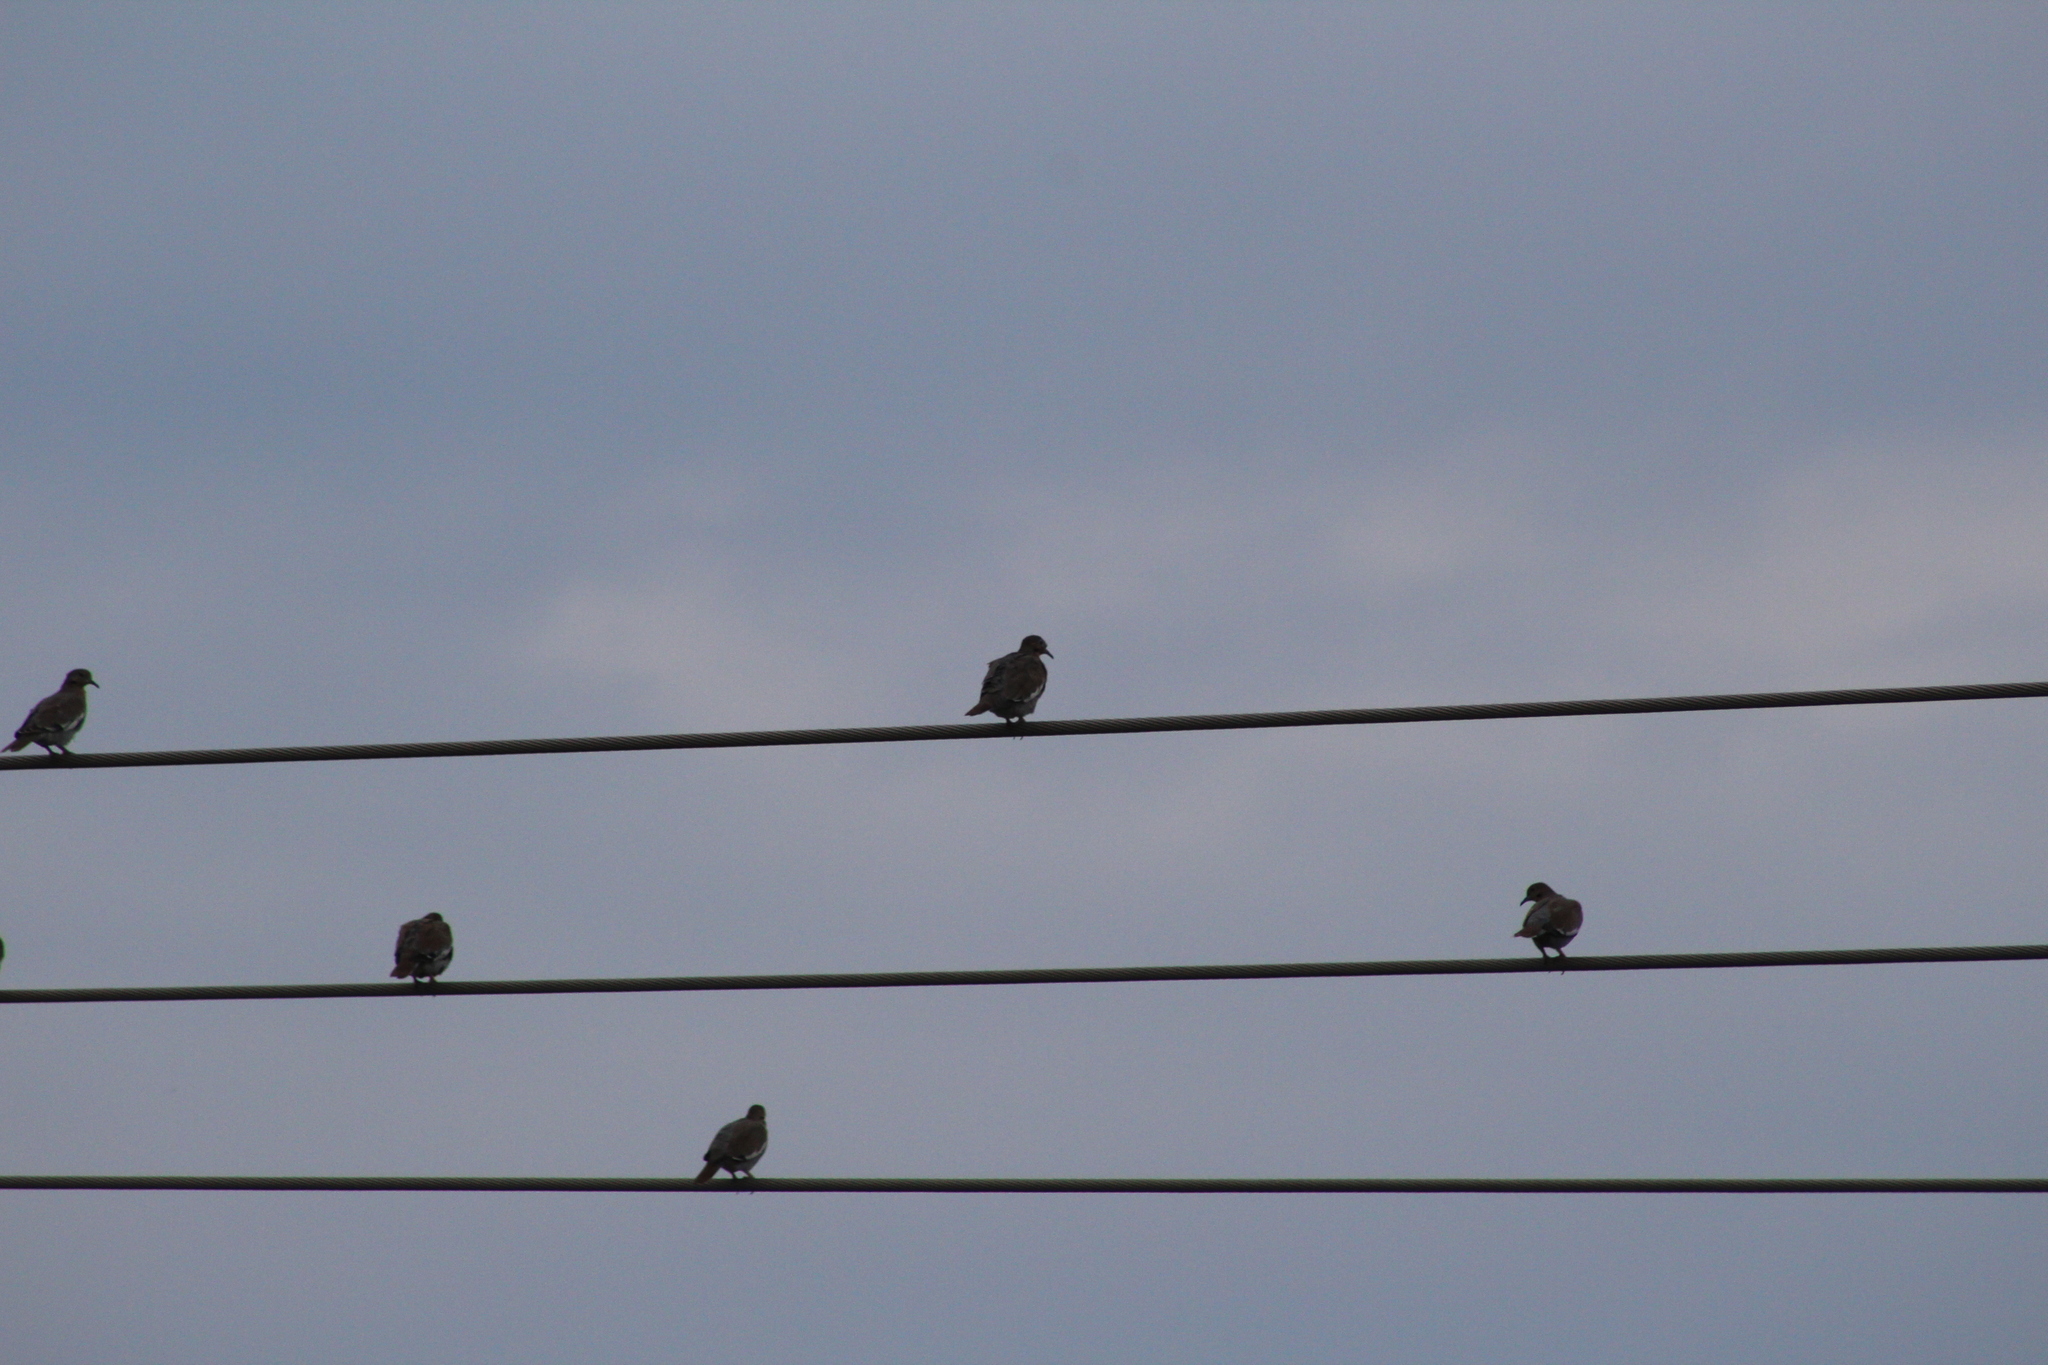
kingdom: Animalia
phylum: Chordata
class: Aves
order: Columbiformes
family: Columbidae
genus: Zenaida
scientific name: Zenaida asiatica
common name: White-winged dove
